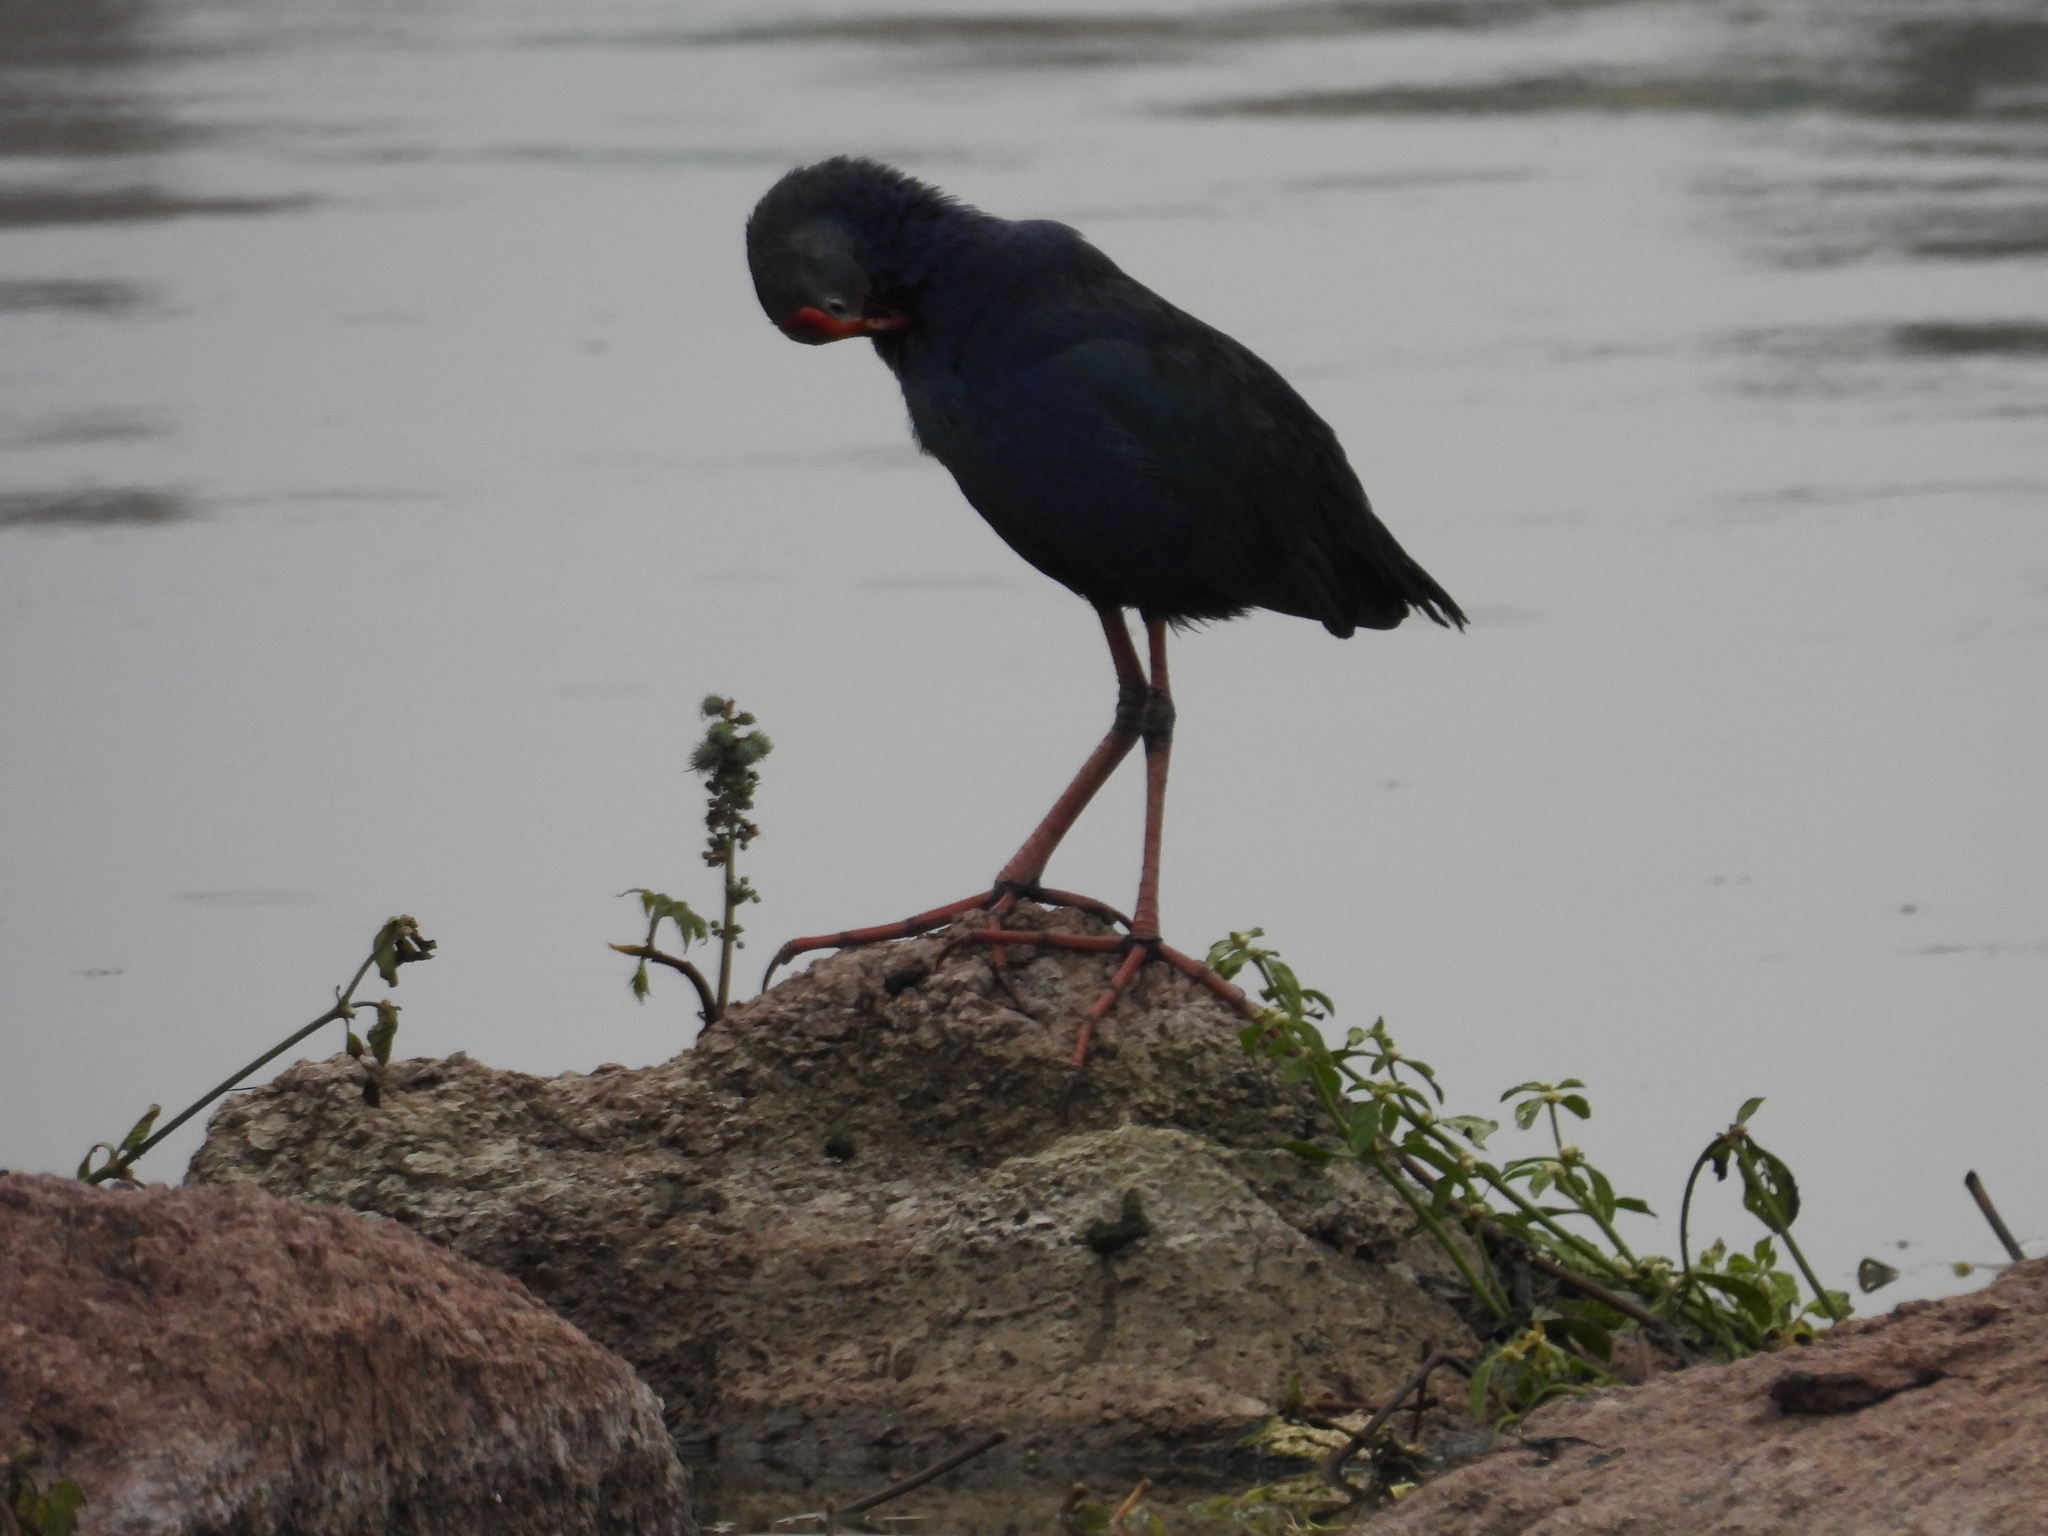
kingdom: Animalia
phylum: Chordata
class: Aves
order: Gruiformes
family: Rallidae
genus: Porphyrio
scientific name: Porphyrio porphyrio
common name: Purple swamphen
